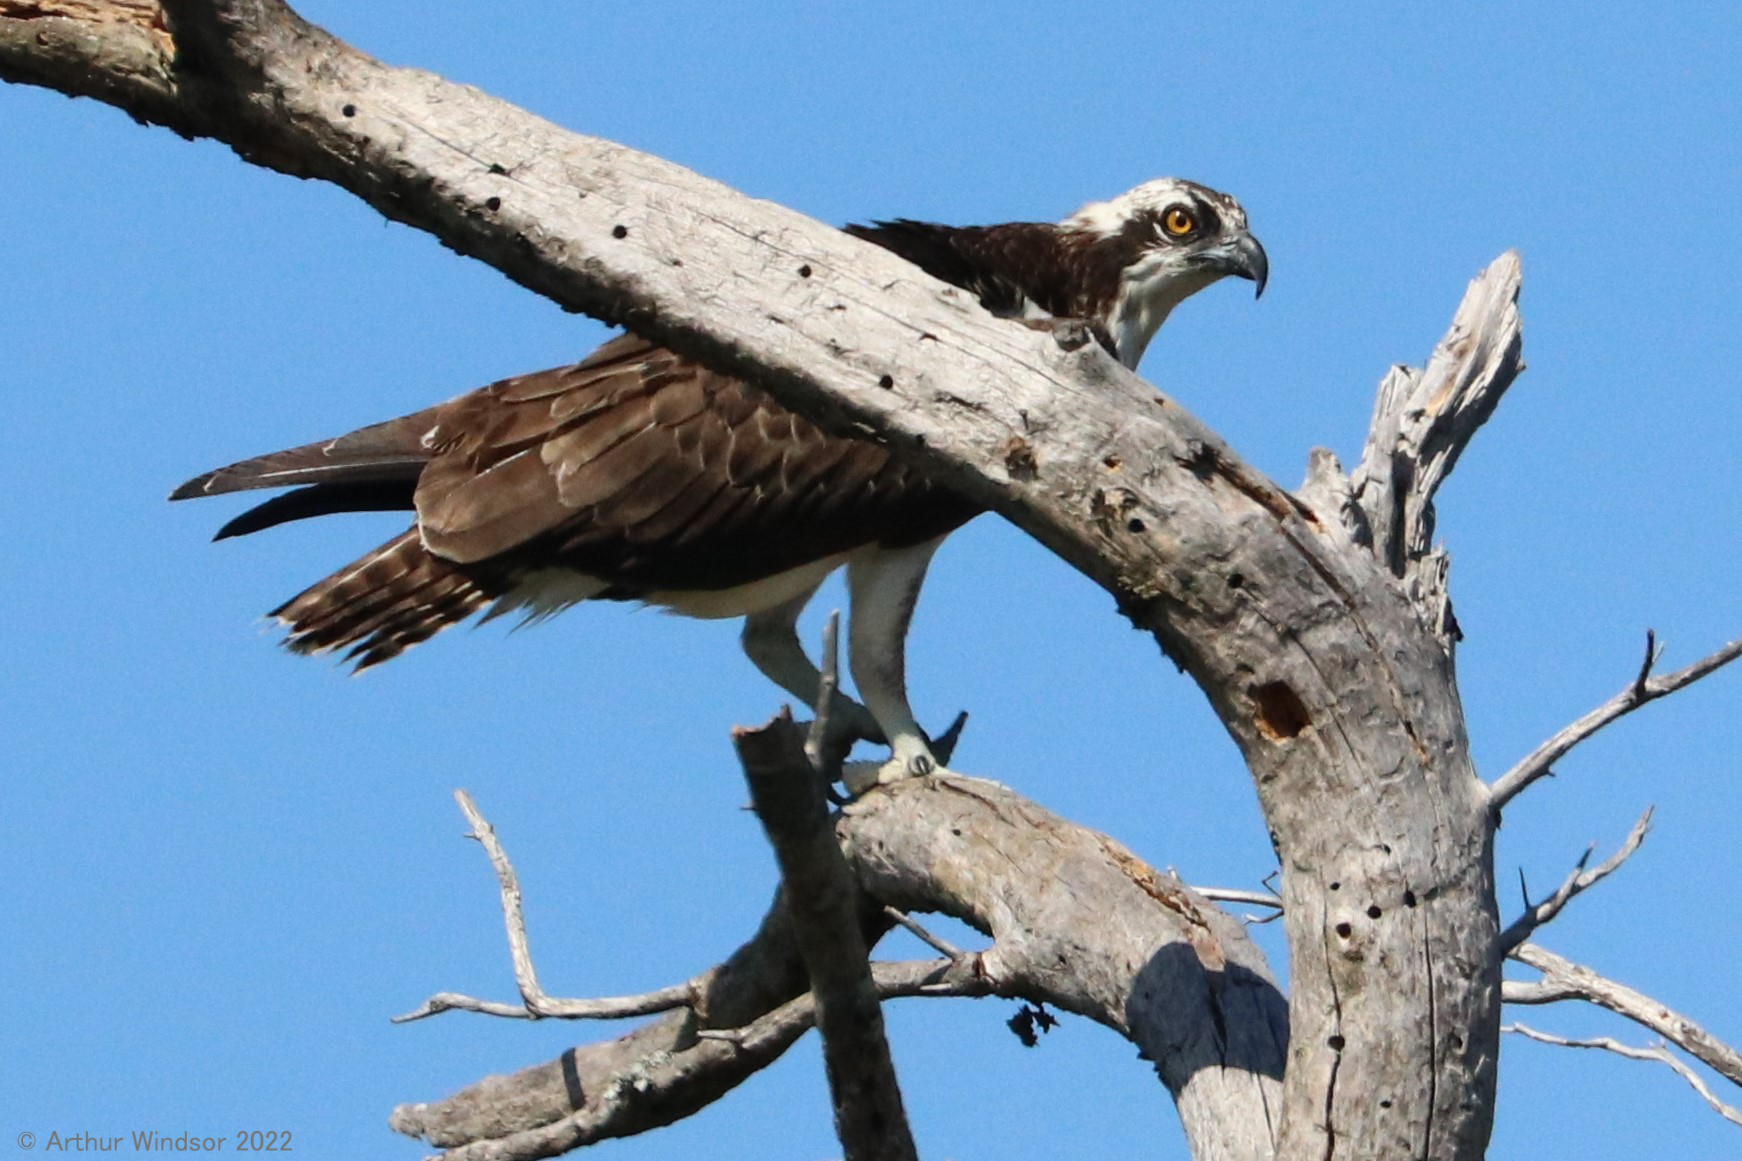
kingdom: Animalia
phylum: Chordata
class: Aves
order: Accipitriformes
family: Pandionidae
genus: Pandion
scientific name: Pandion haliaetus
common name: Osprey
